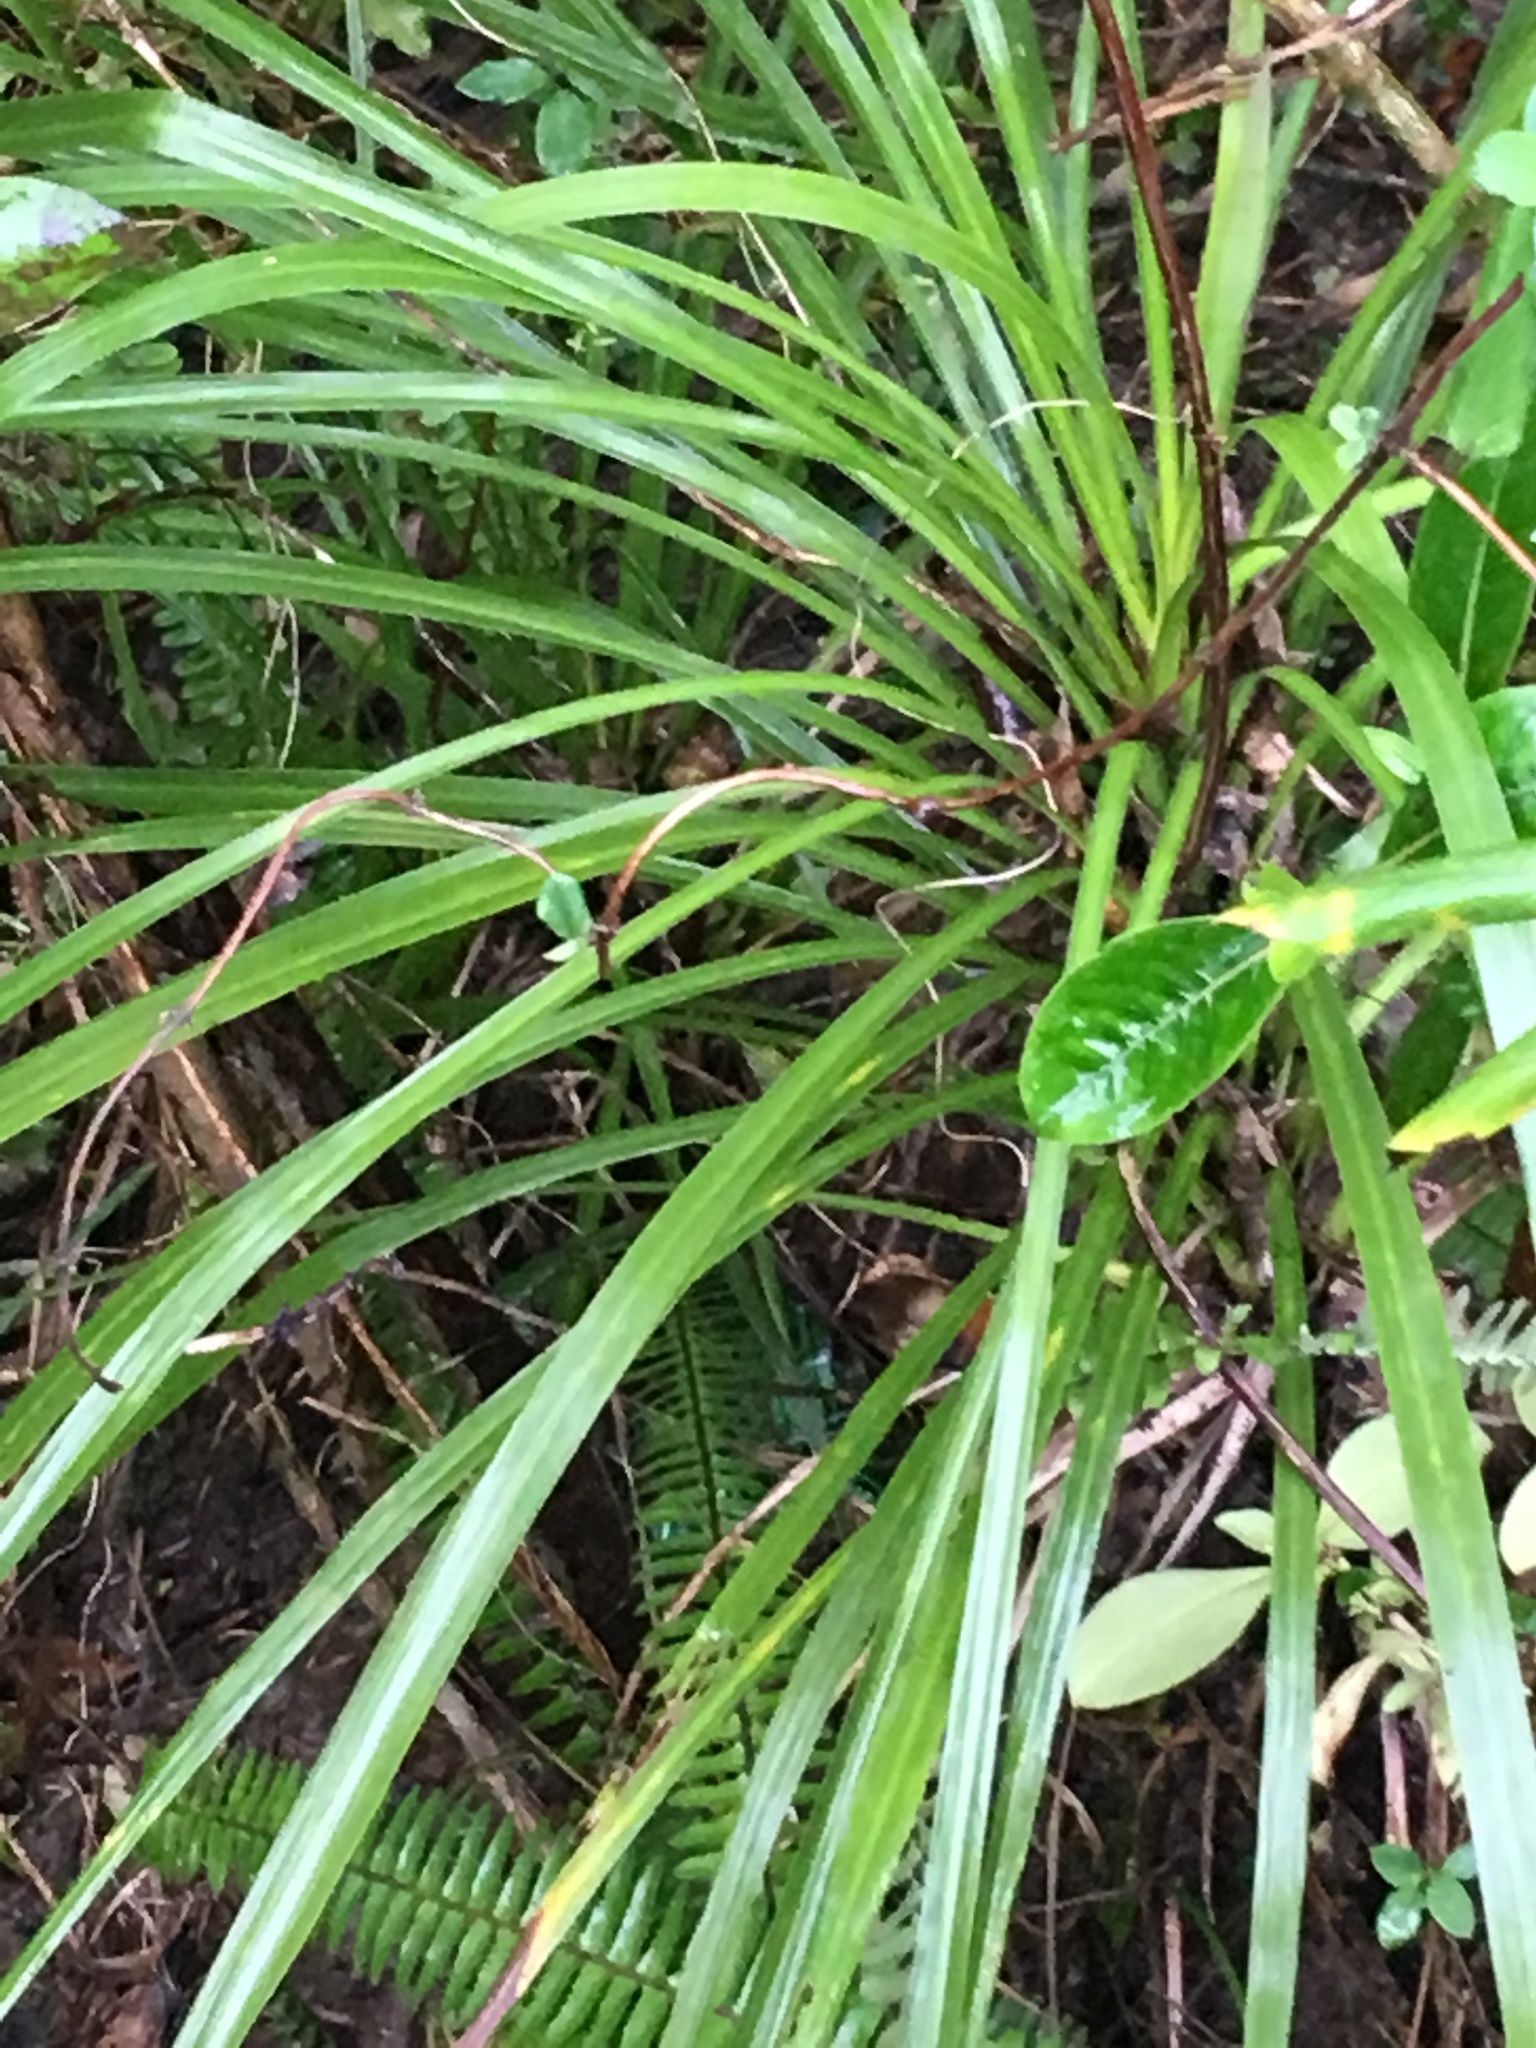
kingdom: Plantae
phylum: Tracheophyta
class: Liliopsida
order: Asparagales
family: Asparagaceae
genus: Cordyline
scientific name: Cordyline australis
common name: Cabbage-palm
